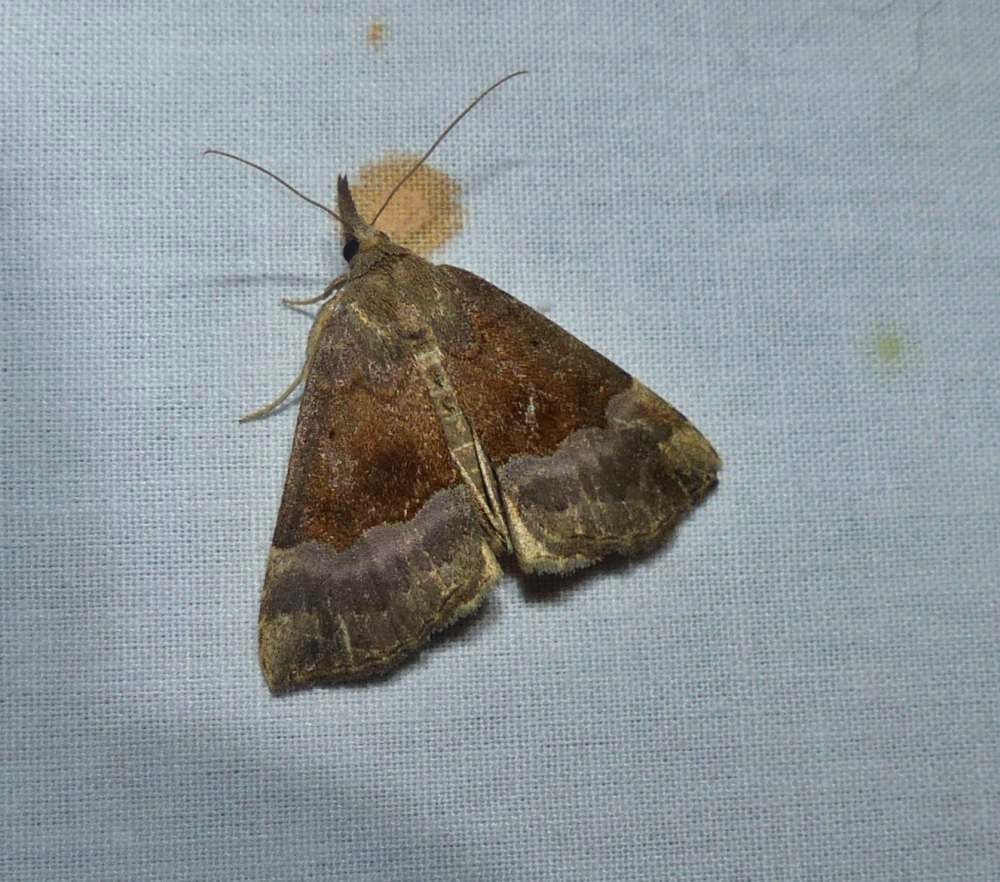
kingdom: Animalia
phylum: Arthropoda
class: Insecta
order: Lepidoptera
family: Erebidae
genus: Hypena
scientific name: Hypena madefactalis
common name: Gray-edged snout
